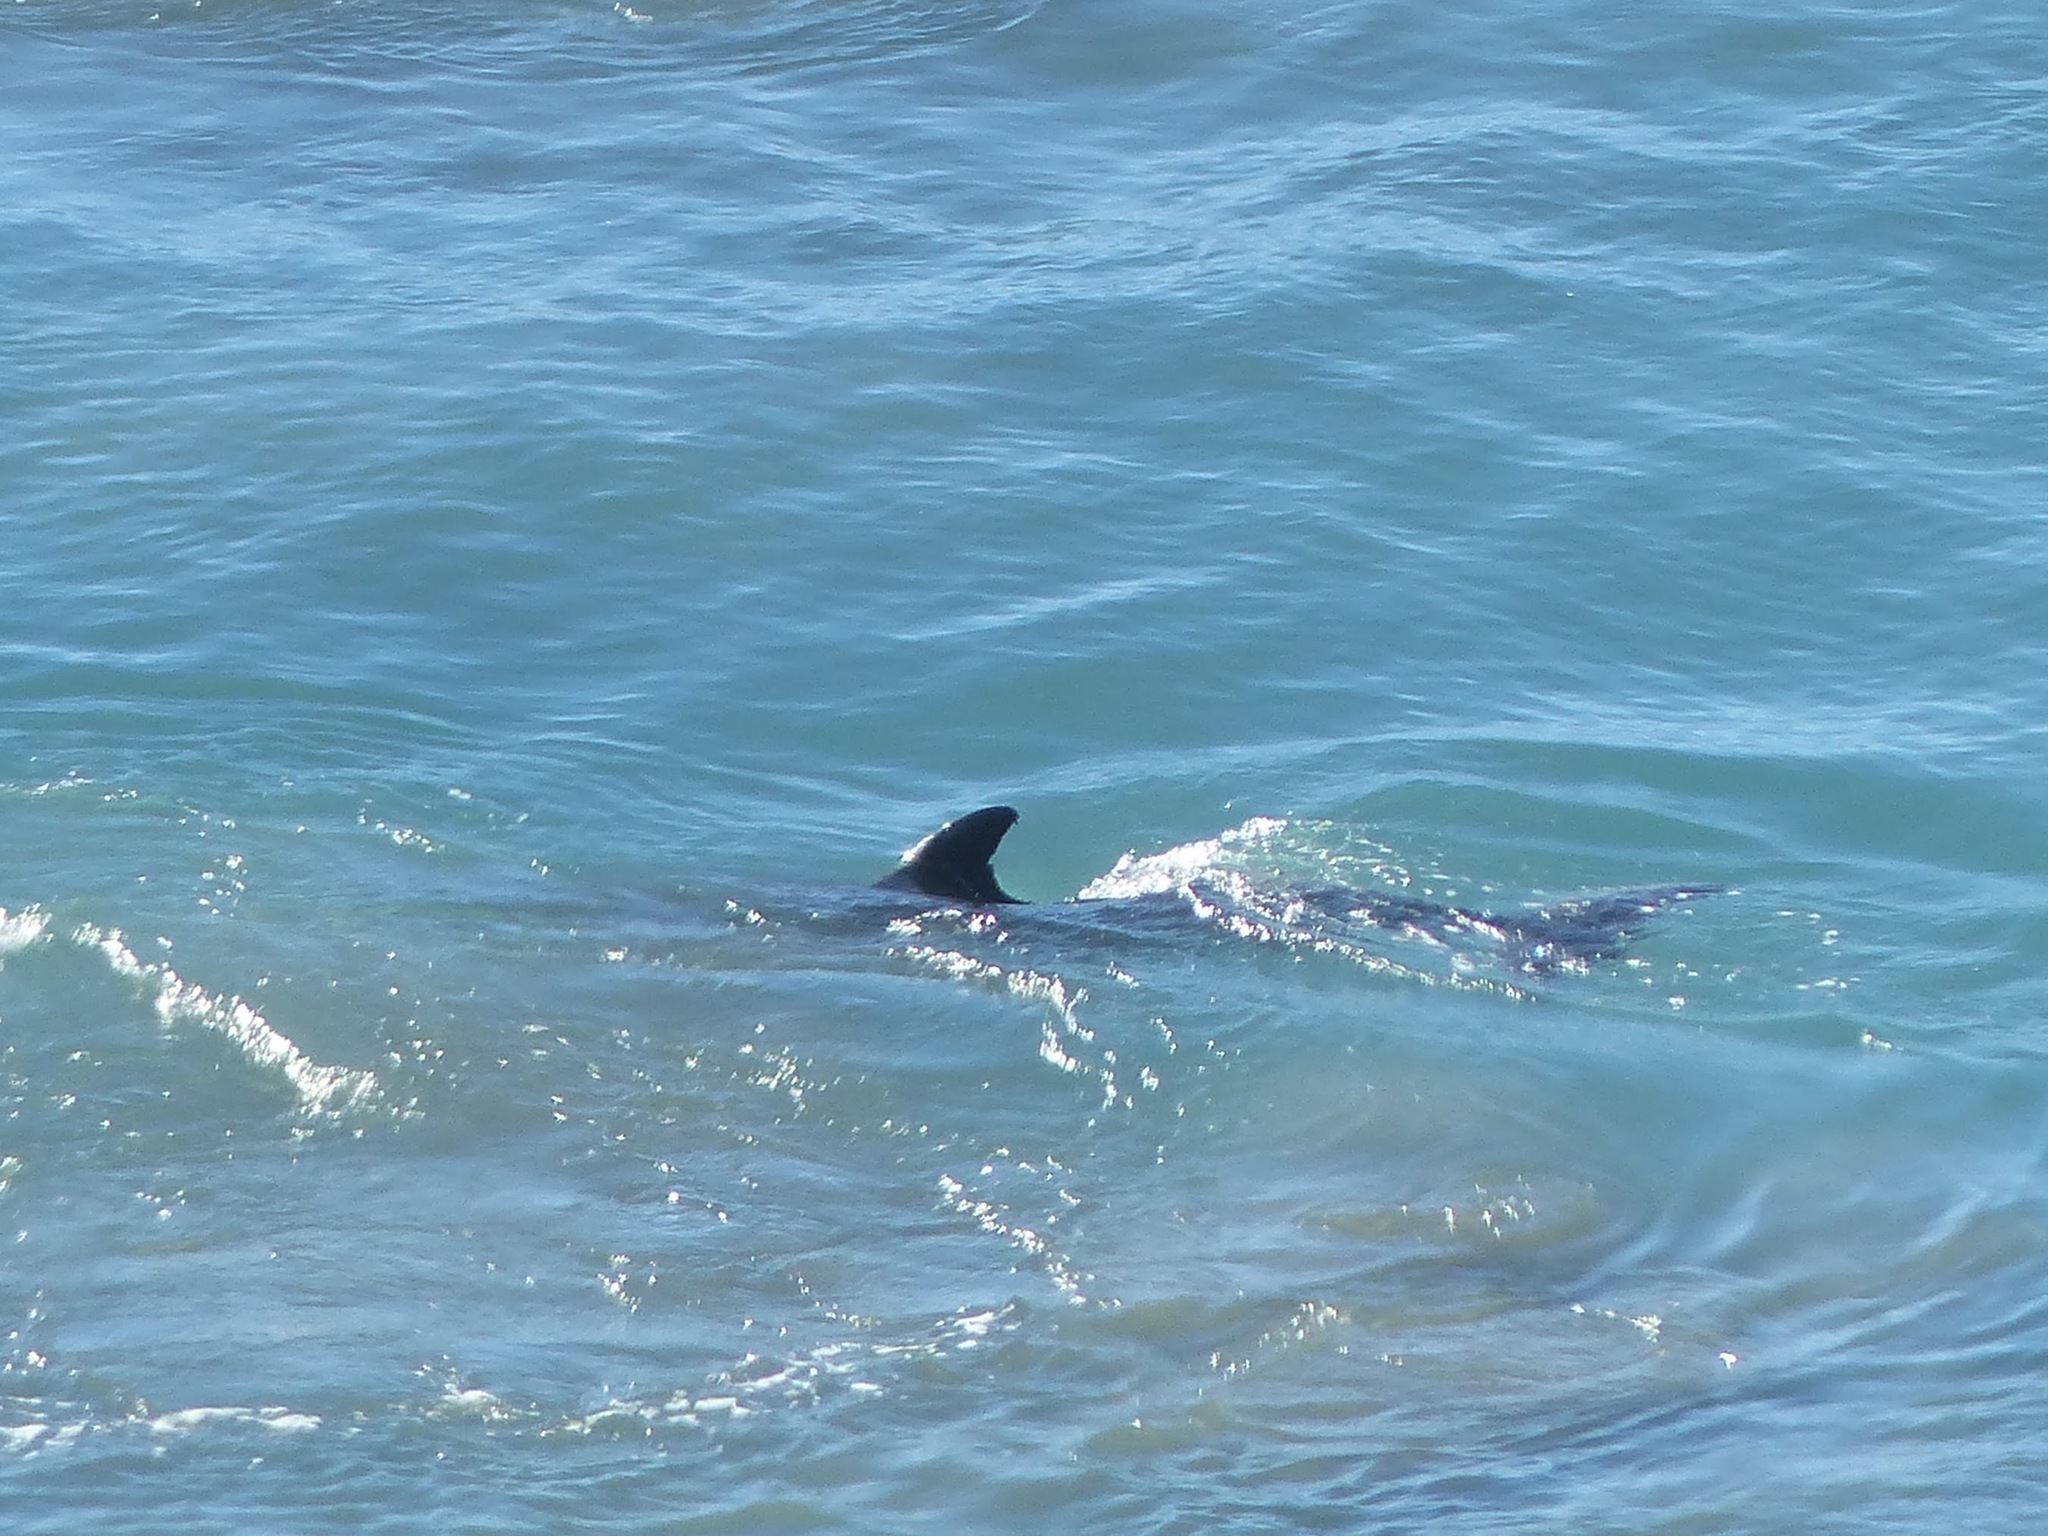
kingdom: Animalia
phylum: Chordata
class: Mammalia
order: Cetacea
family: Delphinidae
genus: Tursiops
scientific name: Tursiops truncatus
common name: Bottlenose dolphin
